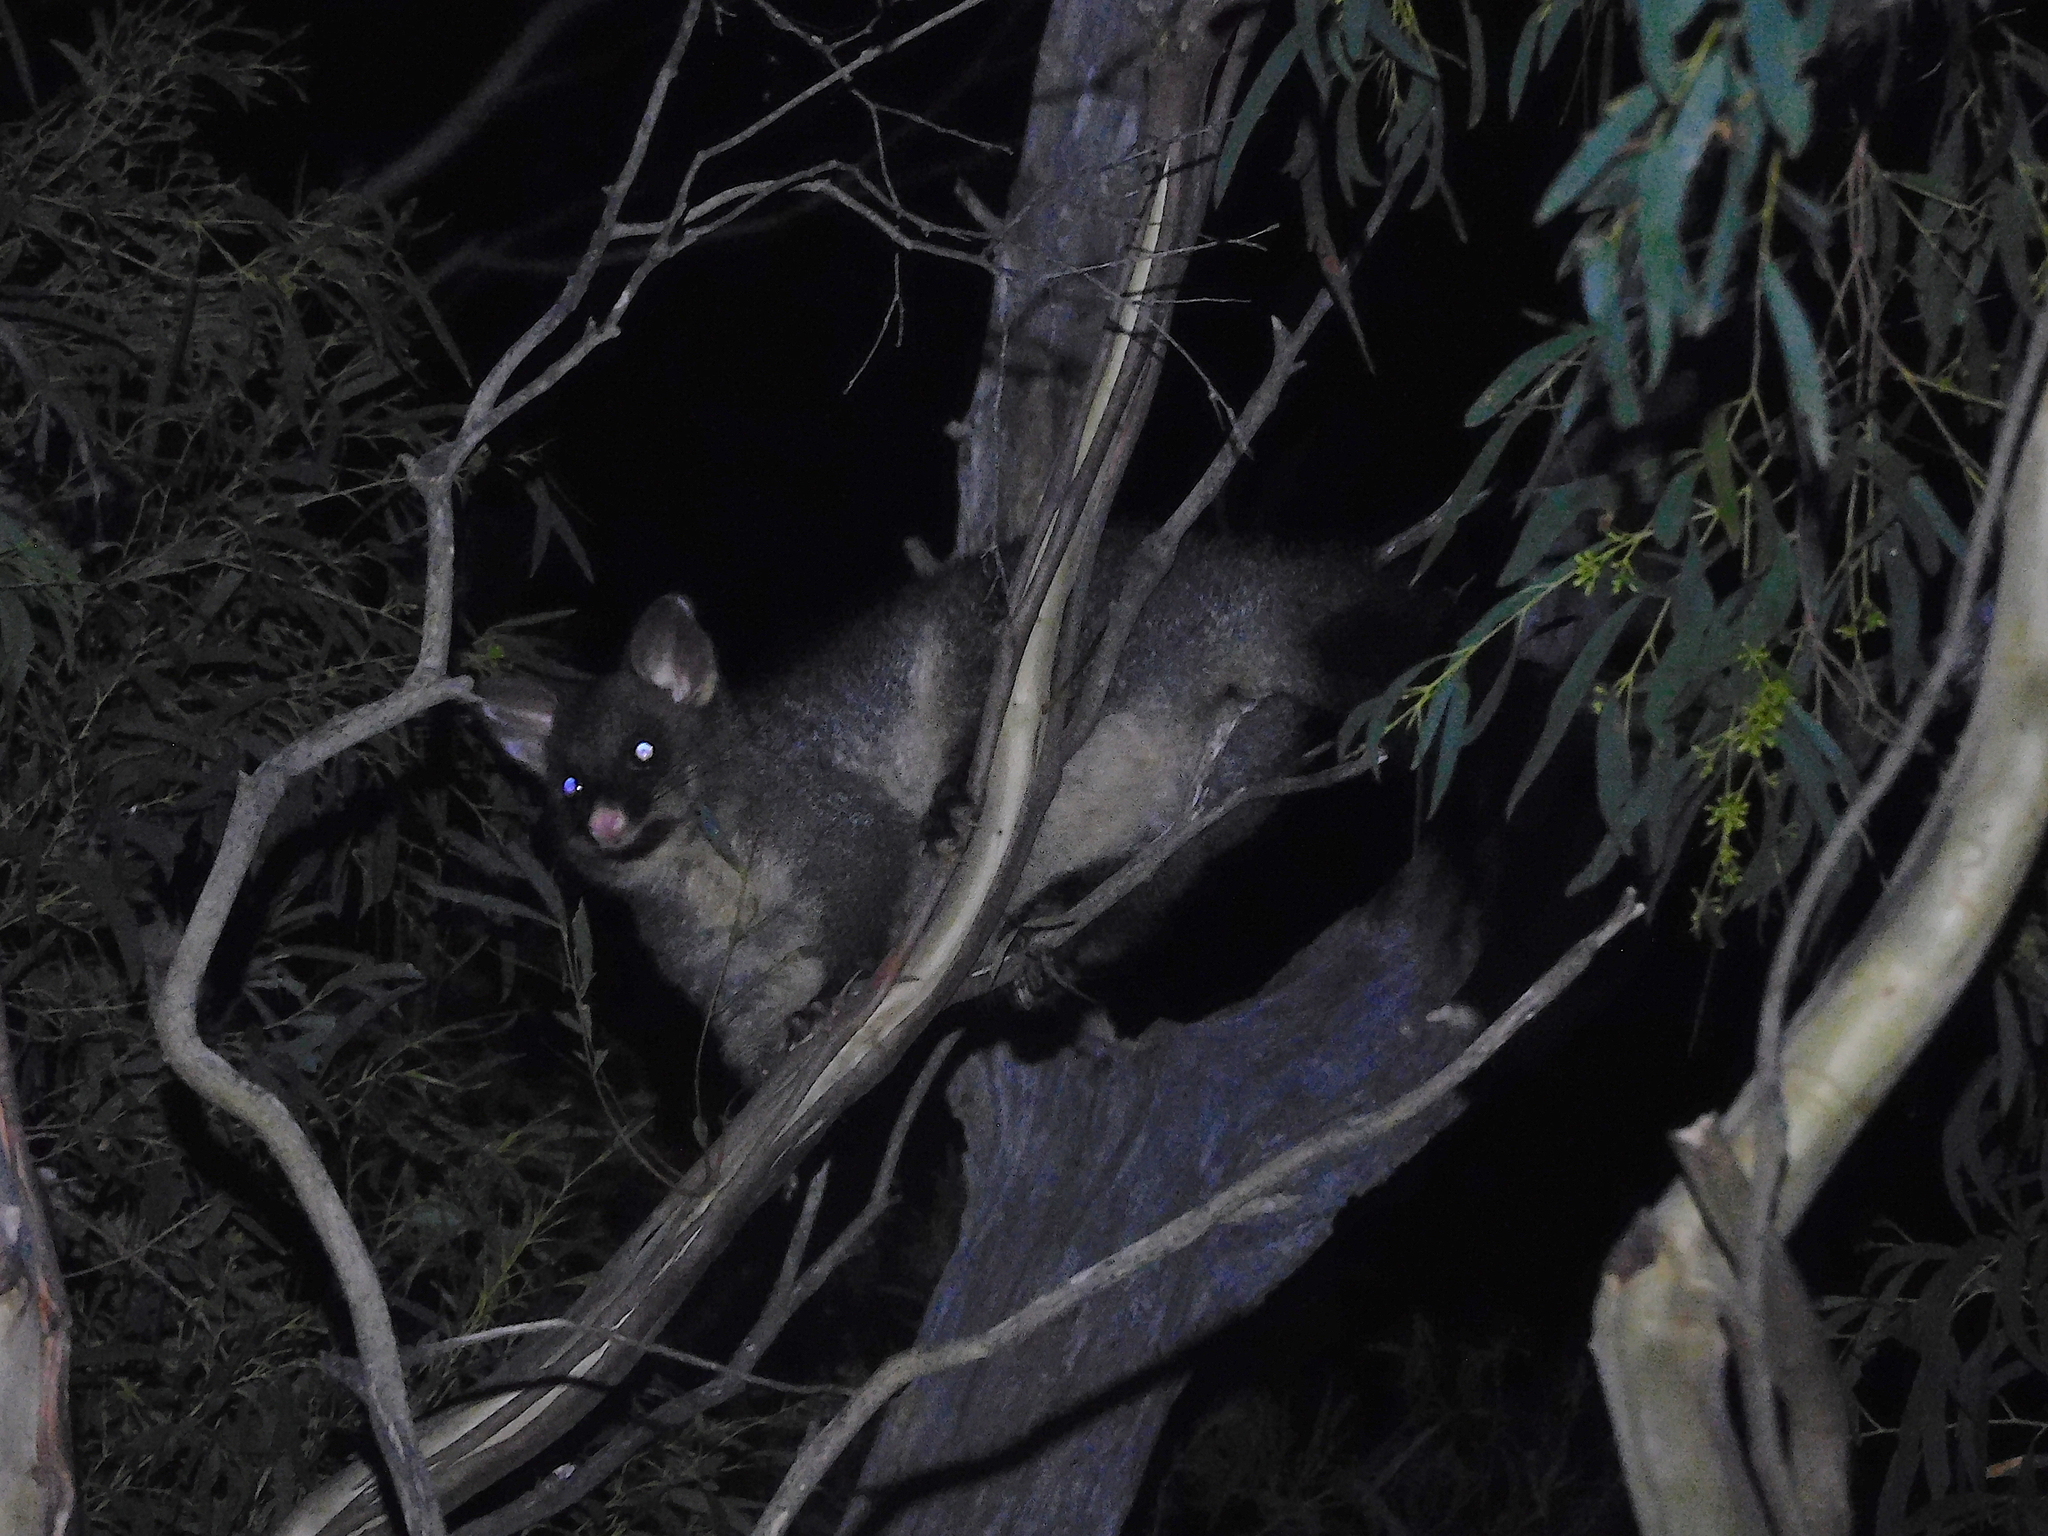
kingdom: Animalia
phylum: Chordata
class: Mammalia
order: Diprotodontia
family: Phalangeridae
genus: Trichosurus
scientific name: Trichosurus vulpecula
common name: Common brushtail
